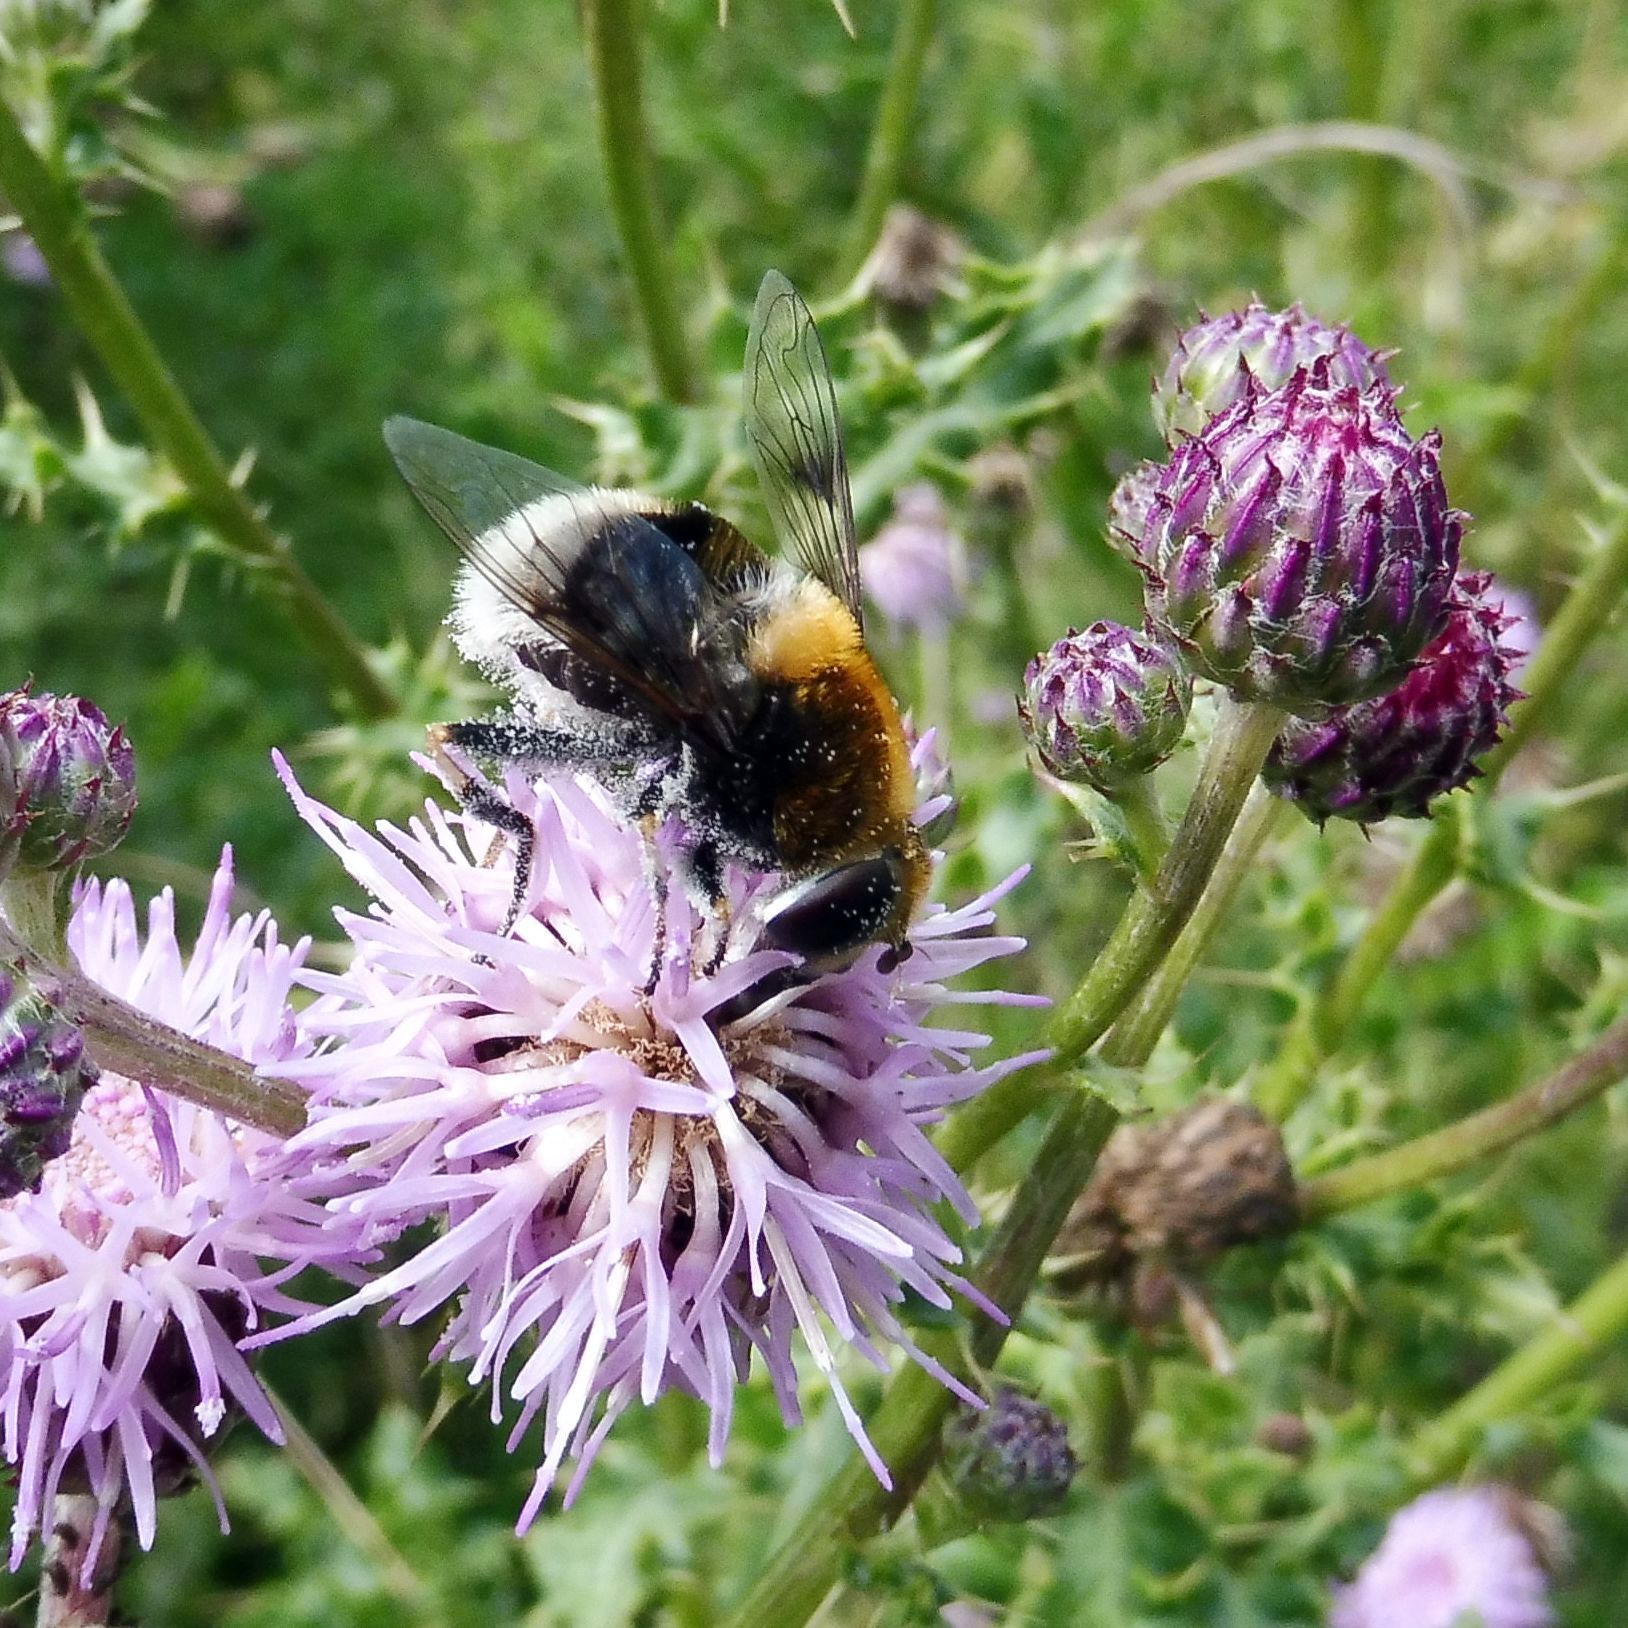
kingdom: Animalia
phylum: Arthropoda
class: Insecta
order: Diptera
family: Syrphidae
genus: Eristalis
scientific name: Eristalis intricaria
